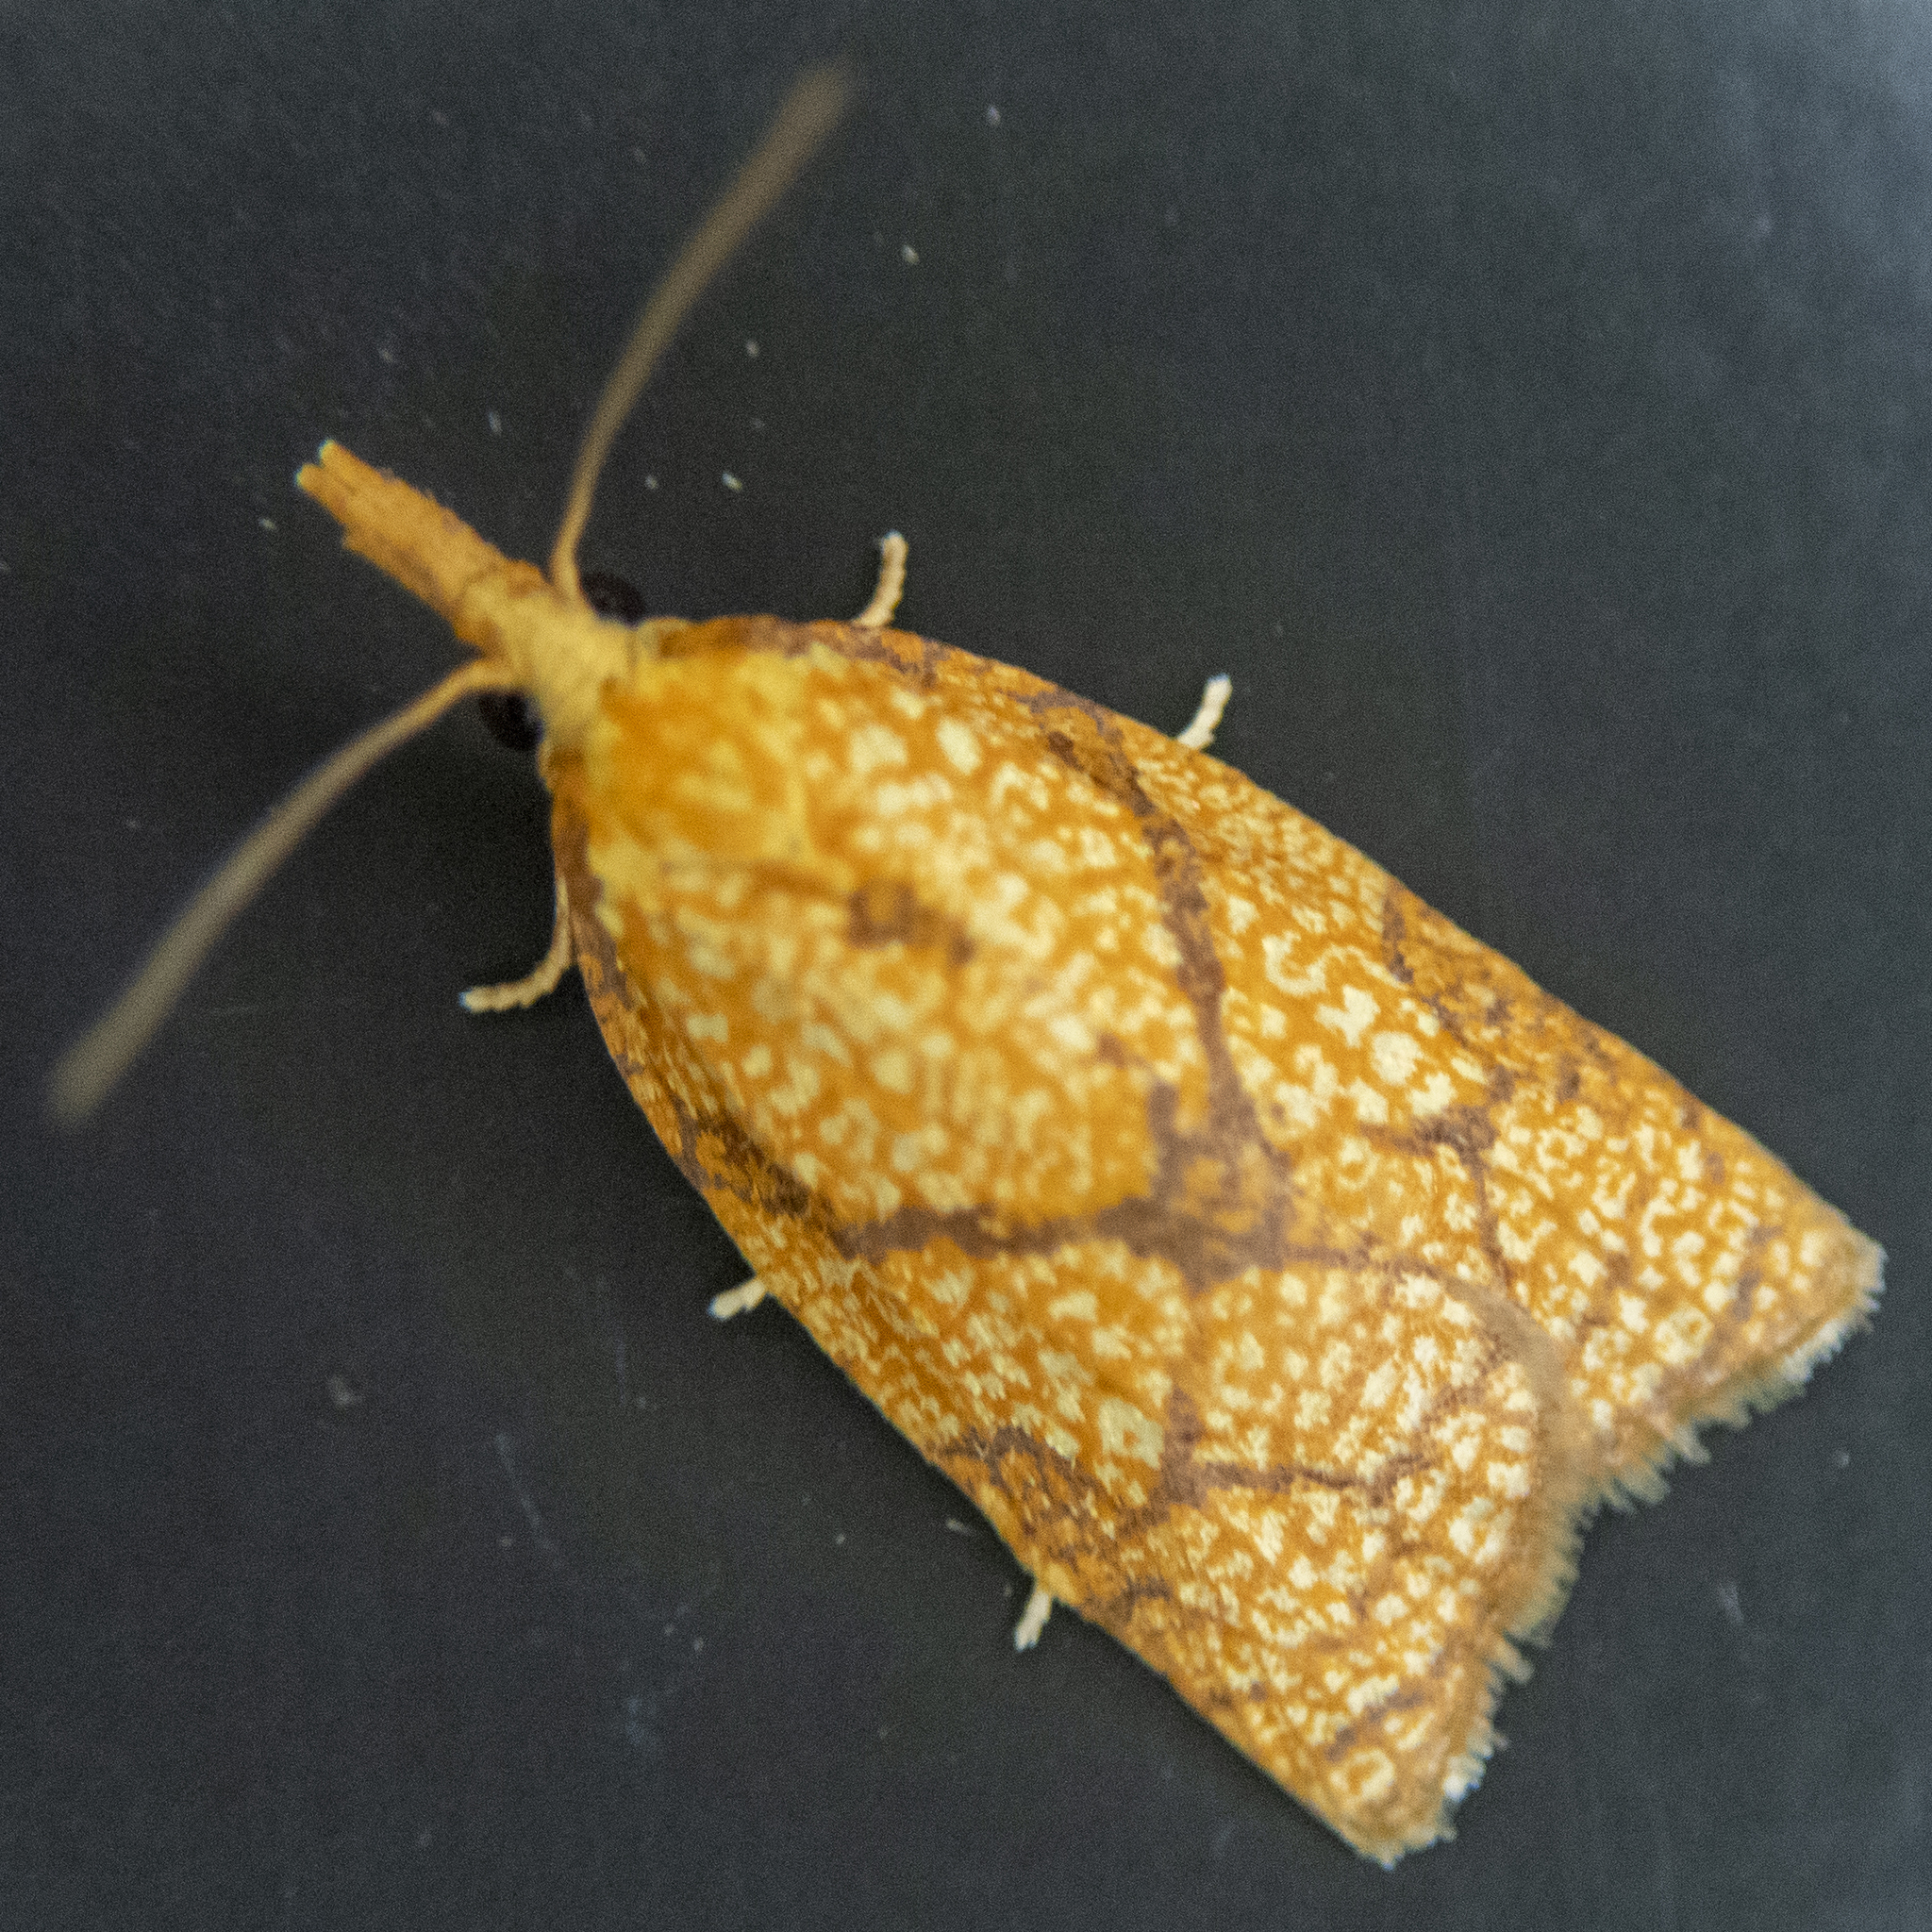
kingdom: Animalia
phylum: Arthropoda
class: Insecta
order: Lepidoptera
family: Tortricidae
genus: Cenopis
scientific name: Cenopis reticulatana
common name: Reticulated fruitworm moth
